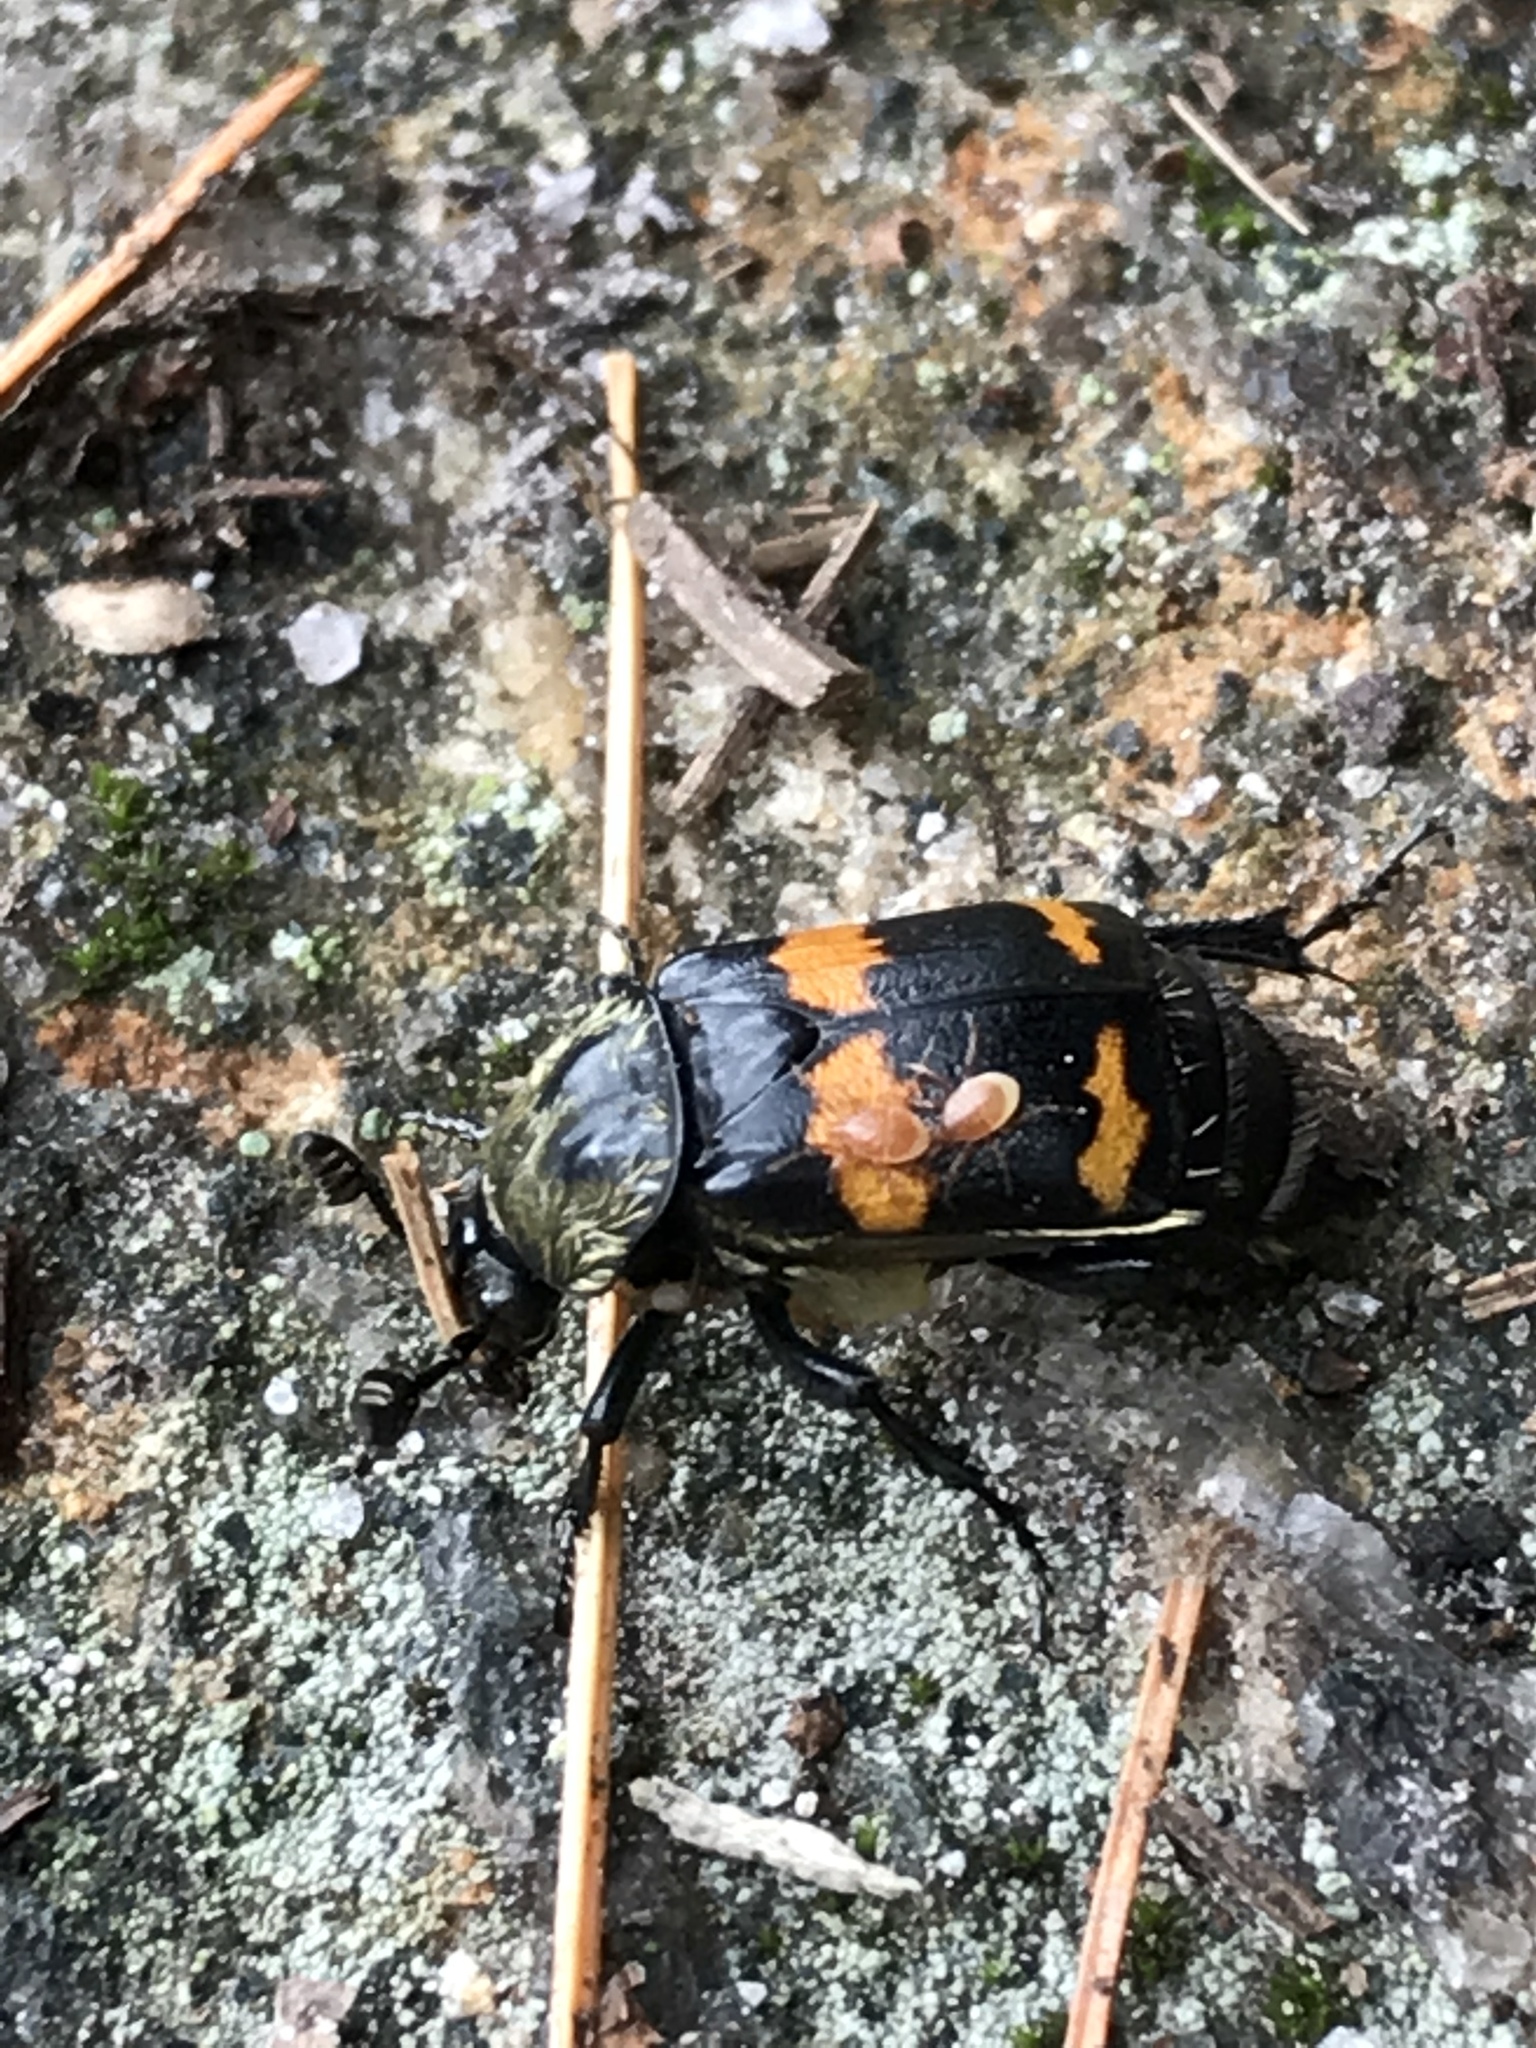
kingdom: Animalia
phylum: Arthropoda
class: Insecta
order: Coleoptera
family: Staphylinidae
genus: Nicrophorus
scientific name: Nicrophorus tomentosus
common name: Tomentose burying beetle
